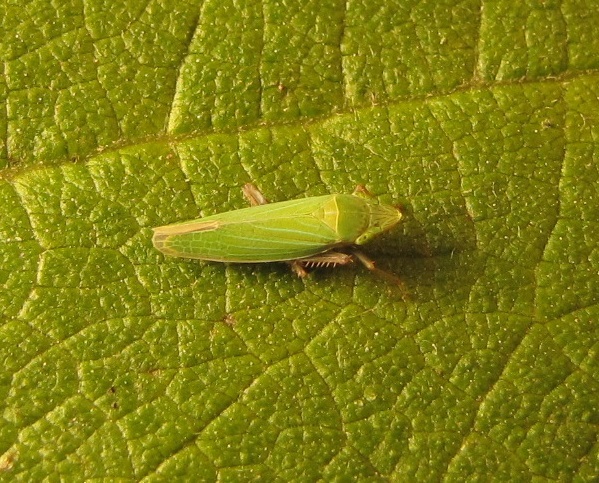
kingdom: Animalia
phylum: Arthropoda
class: Insecta
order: Hemiptera
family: Cicadellidae
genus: Draeculacephala
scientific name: Draeculacephala antica
